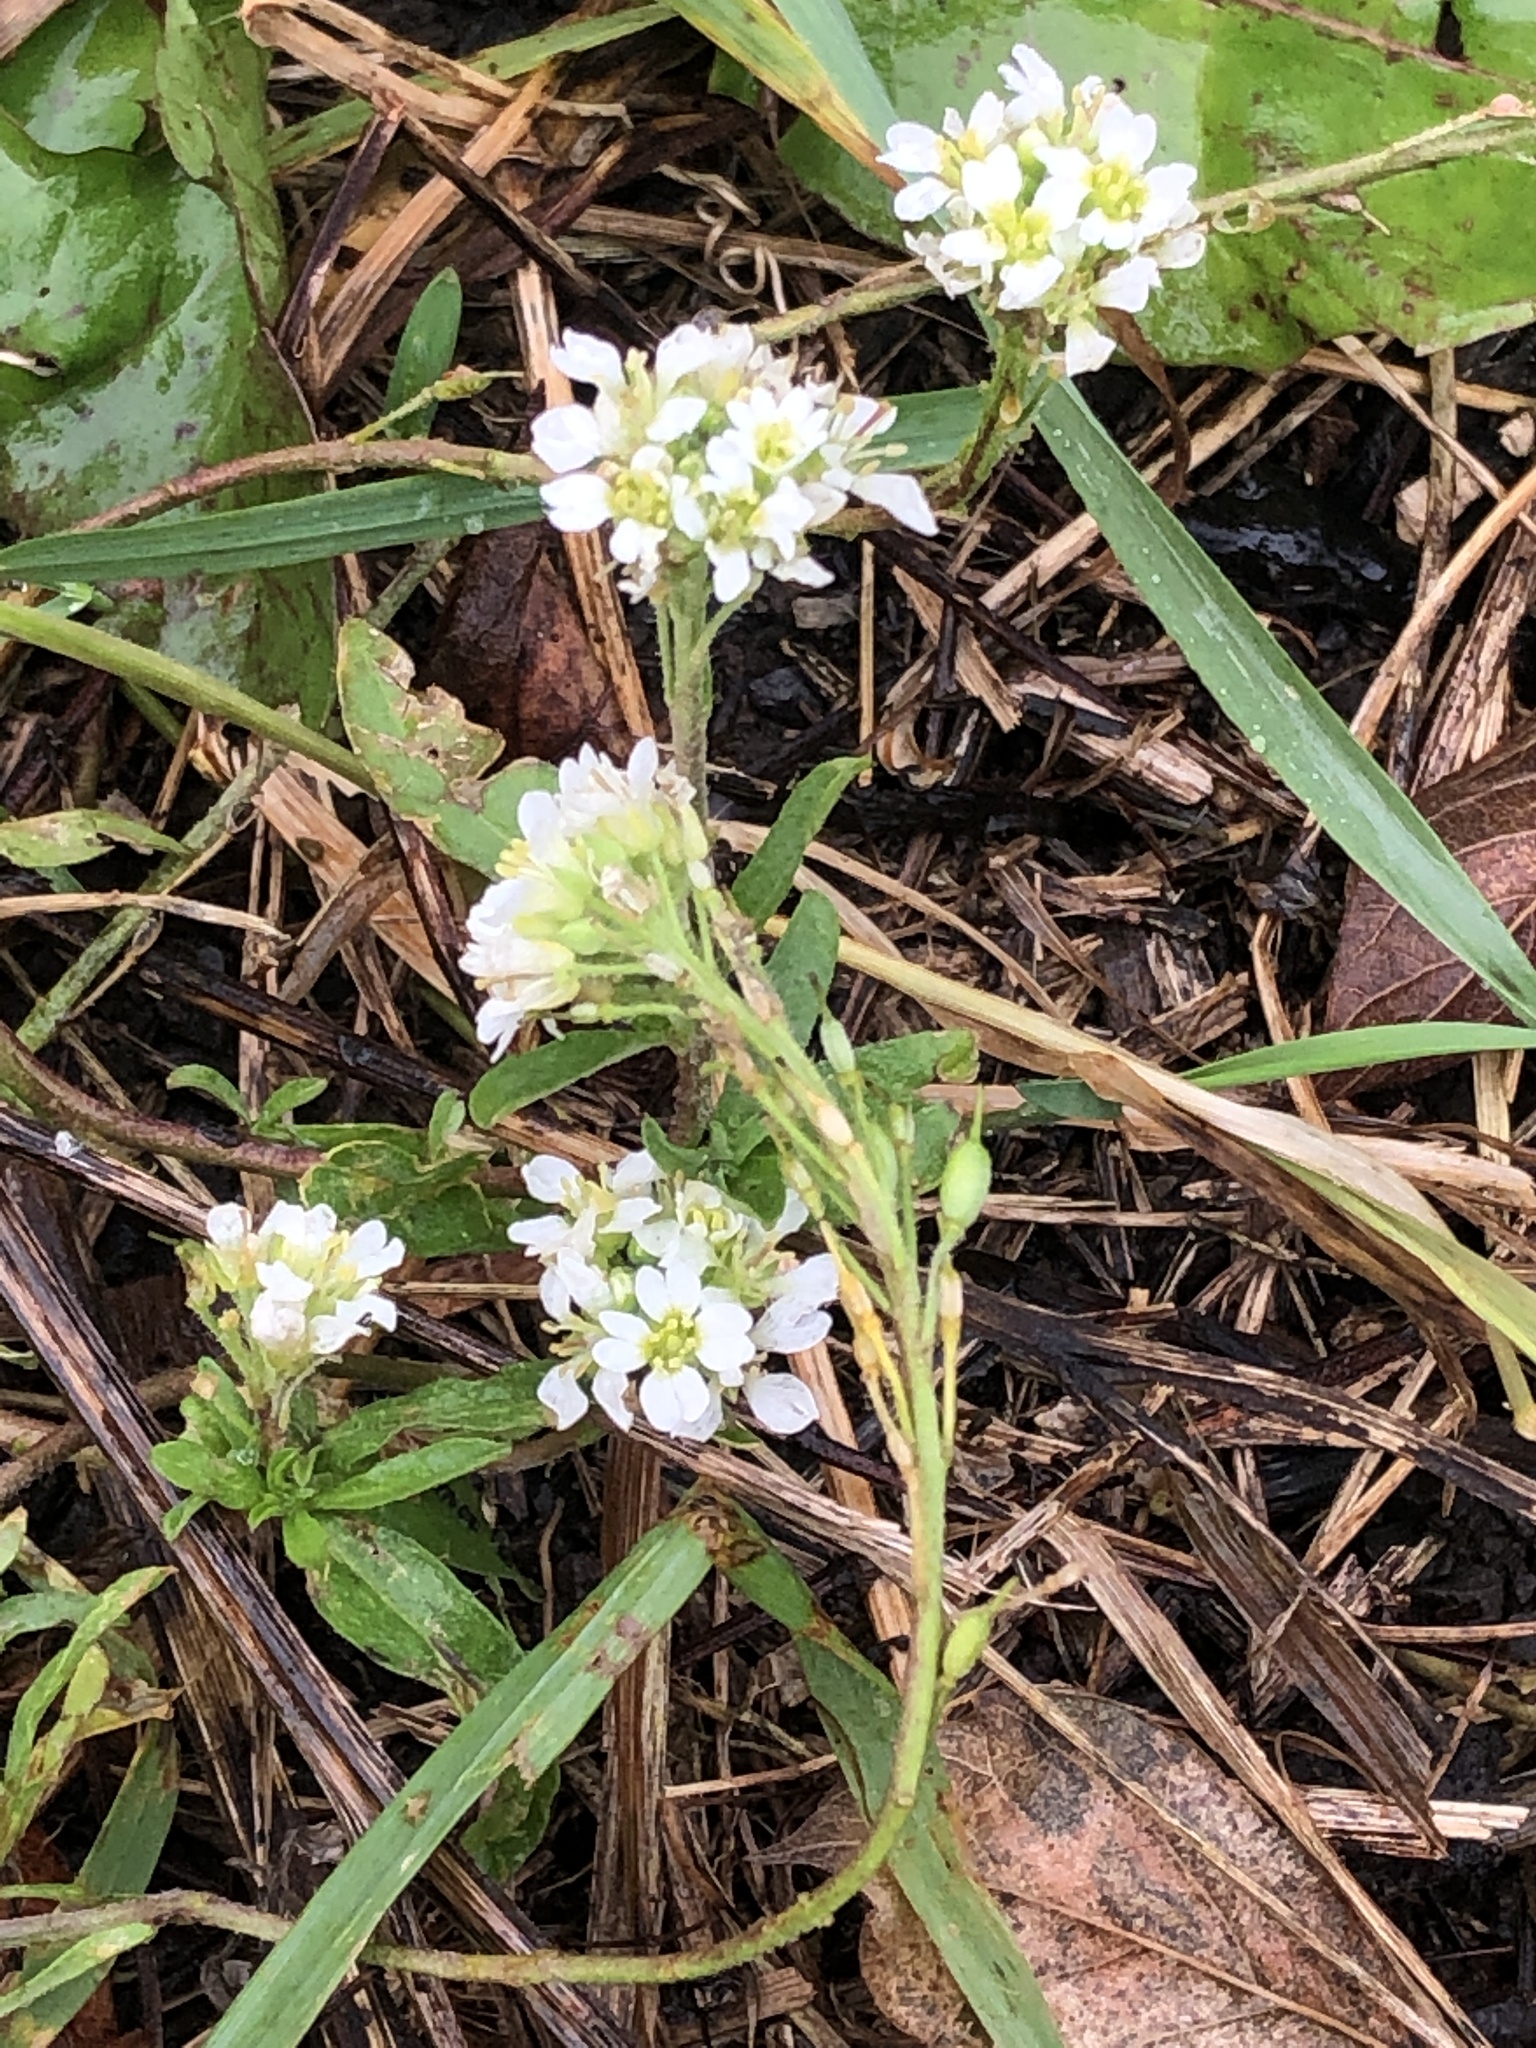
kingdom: Plantae
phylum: Tracheophyta
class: Magnoliopsida
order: Brassicales
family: Brassicaceae
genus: Berteroa
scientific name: Berteroa incana
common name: Hoary alison
